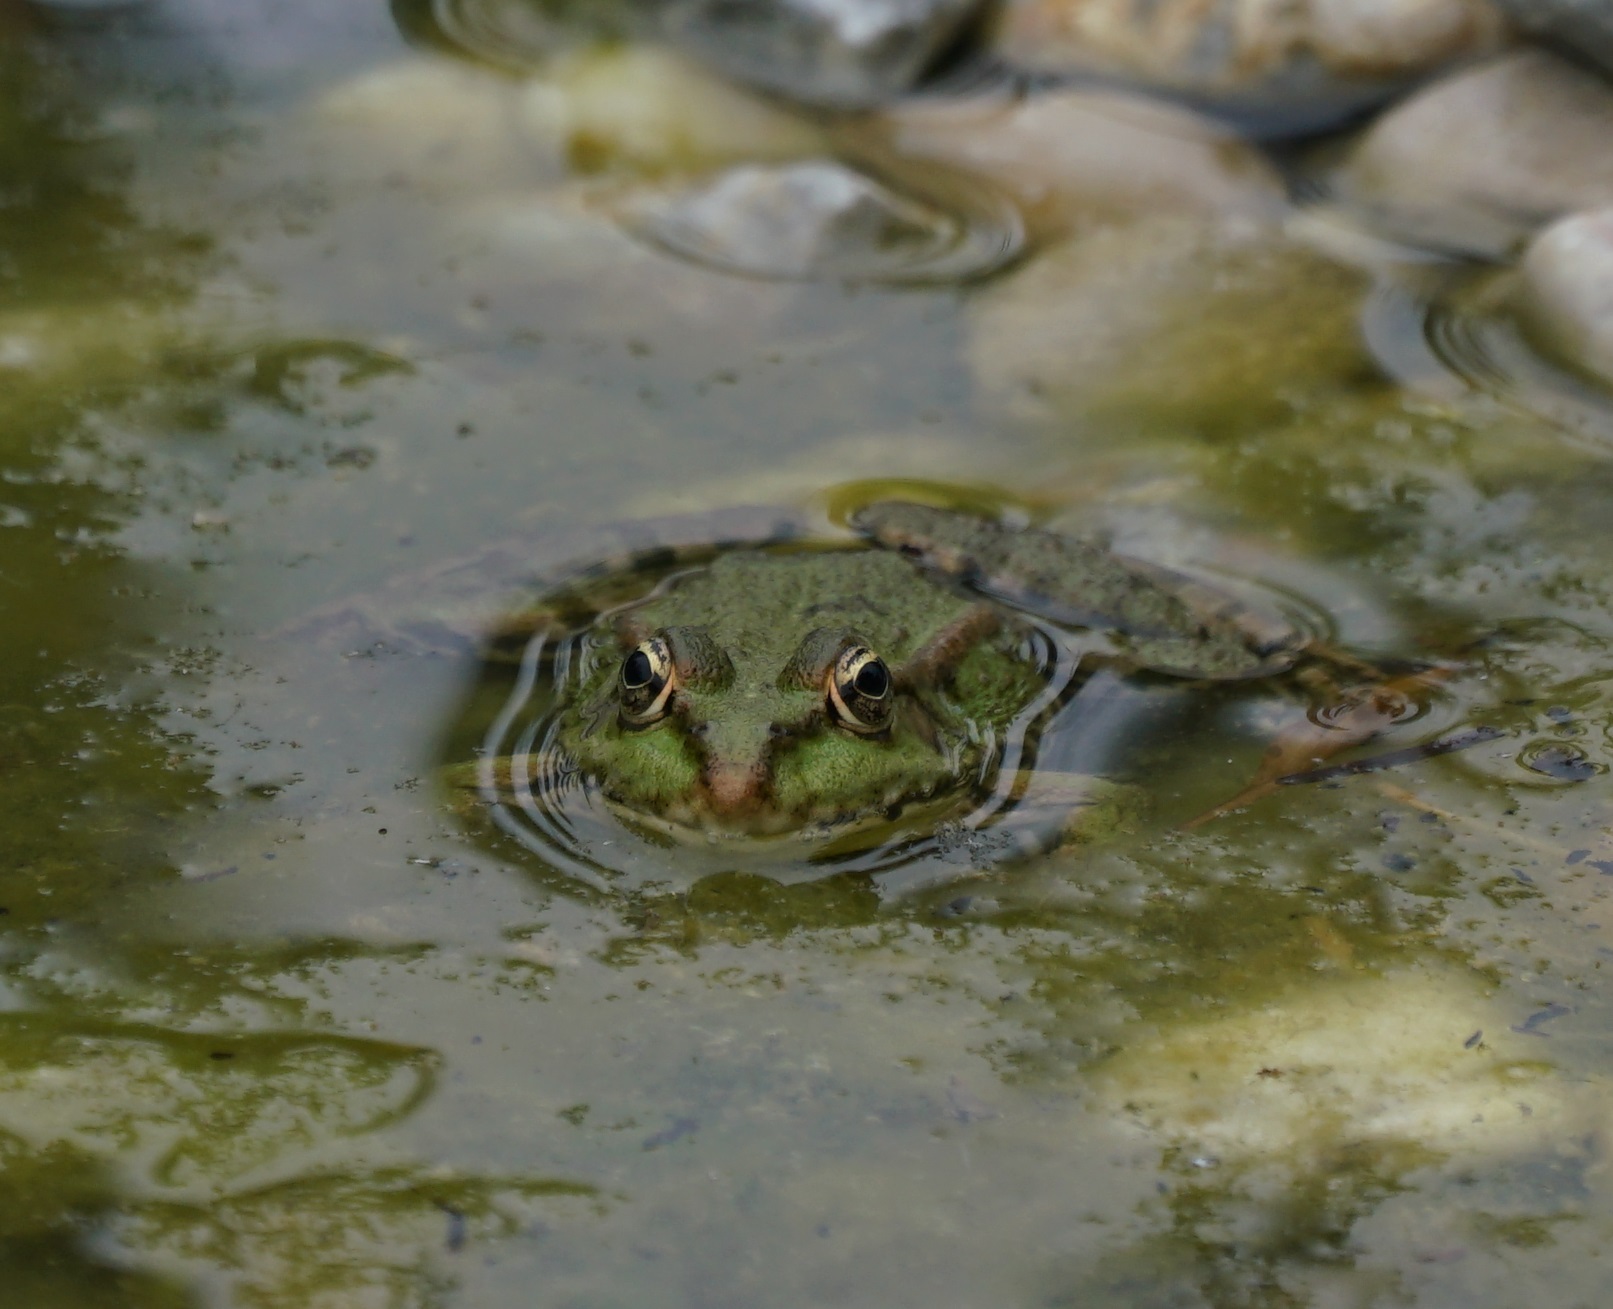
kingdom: Animalia
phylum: Chordata
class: Amphibia
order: Anura
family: Ranidae
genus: Pelophylax
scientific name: Pelophylax
